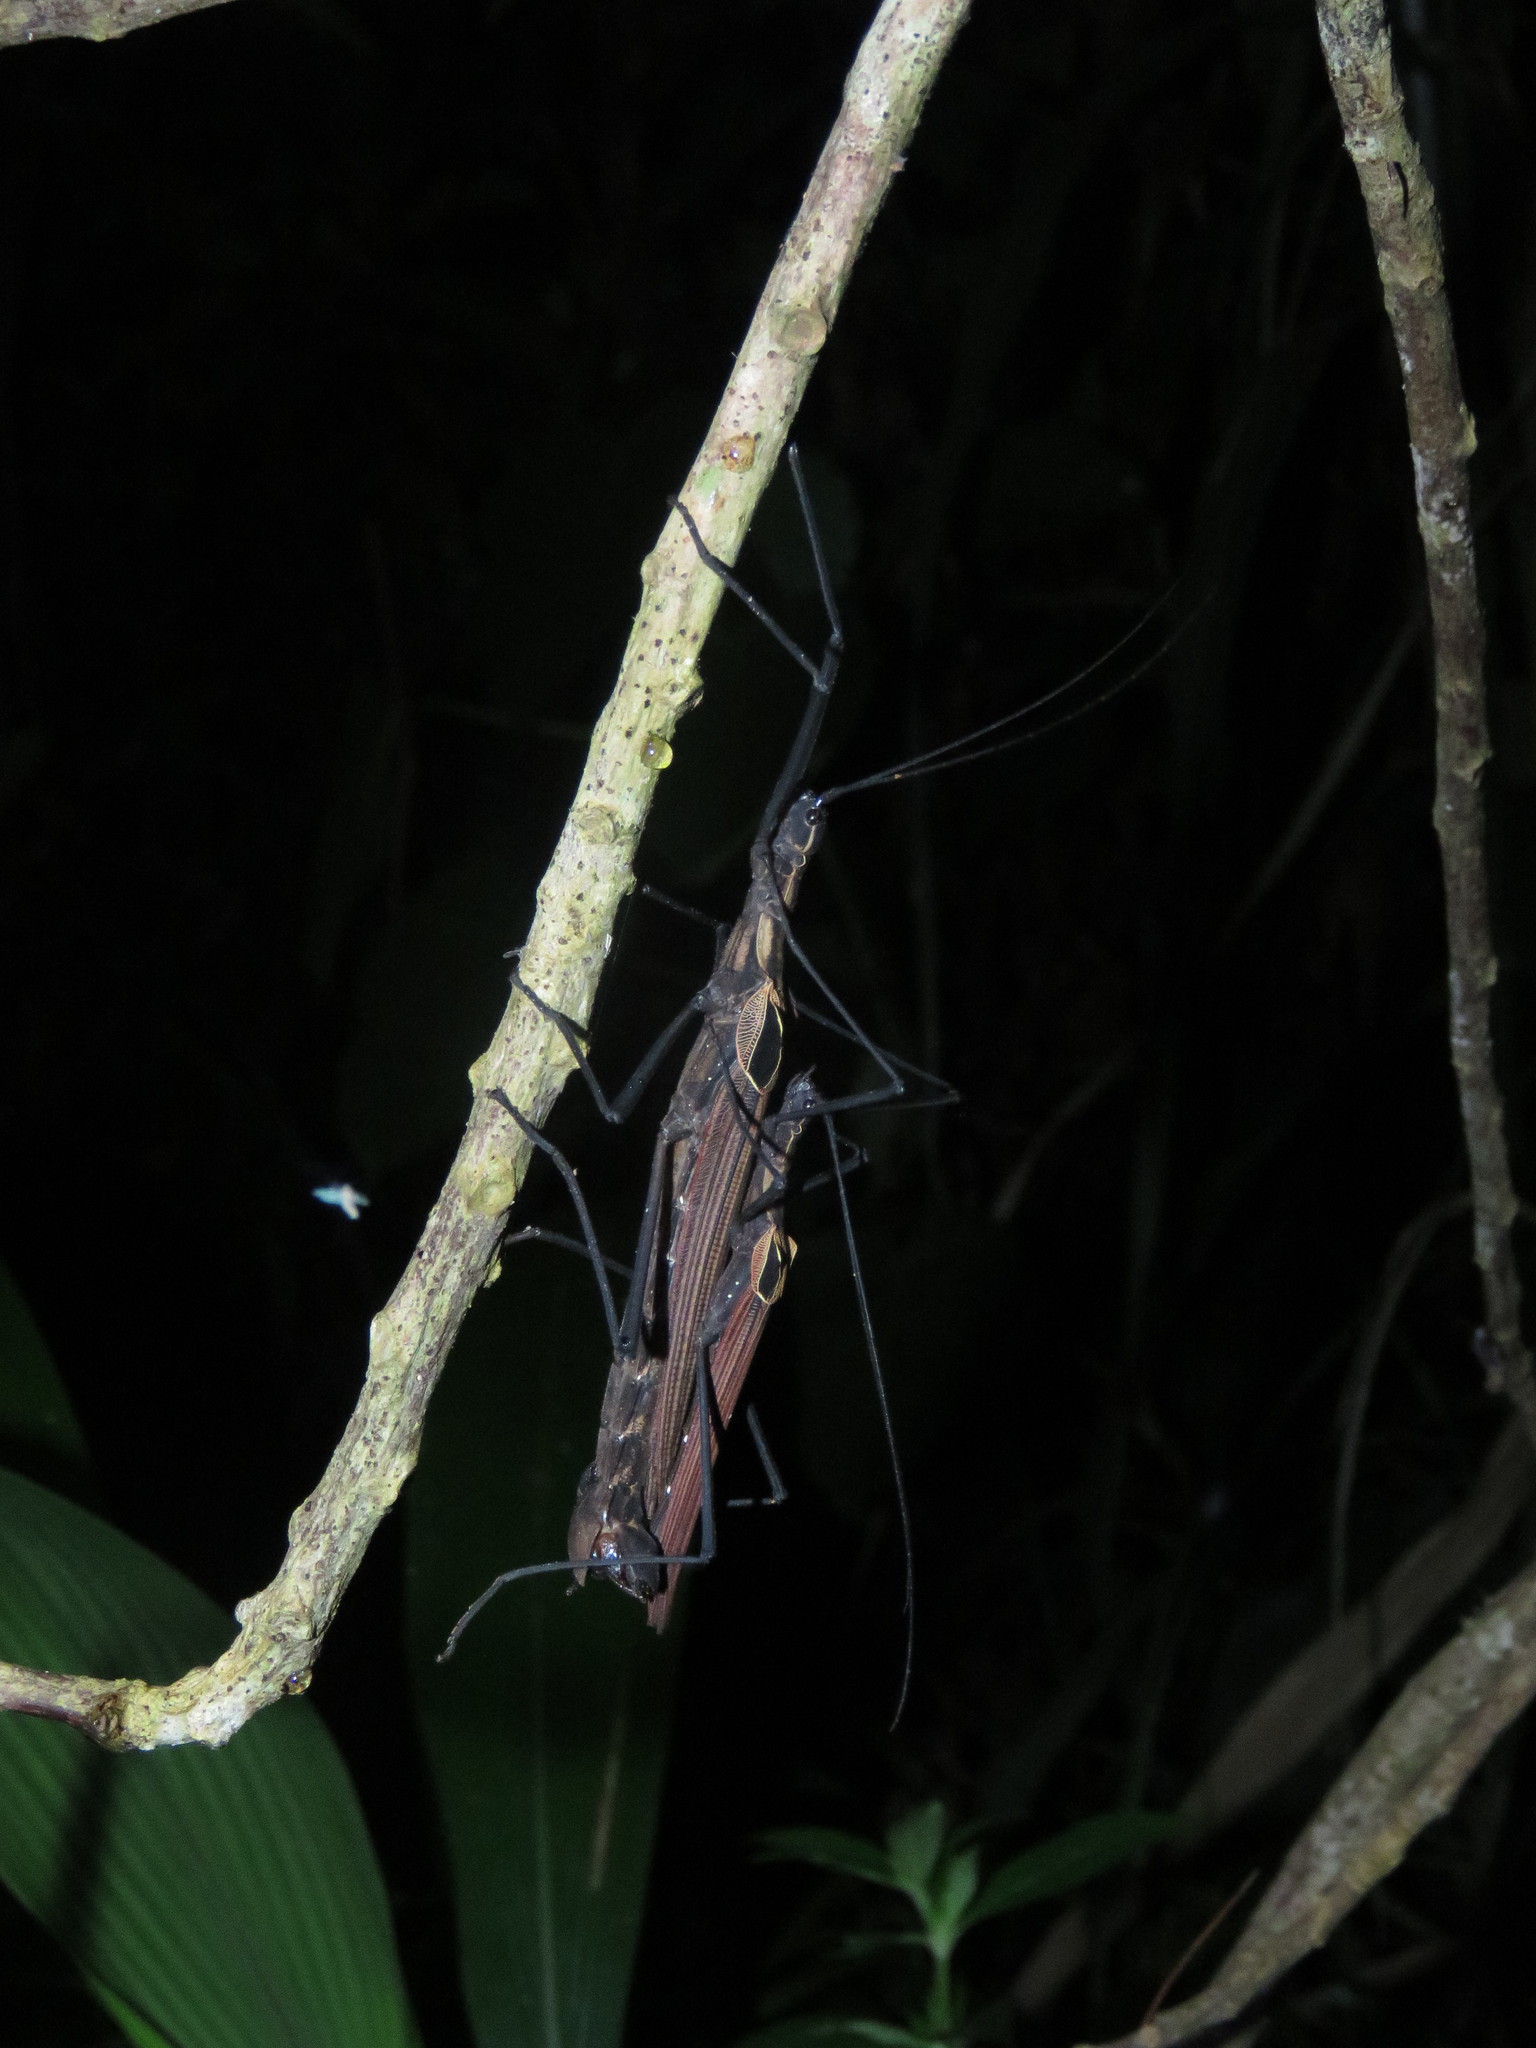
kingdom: Animalia
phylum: Arthropoda
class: Insecta
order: Phasmida
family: Pseudophasmatidae
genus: Pseudophasma
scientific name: Pseudophasma castaneum
